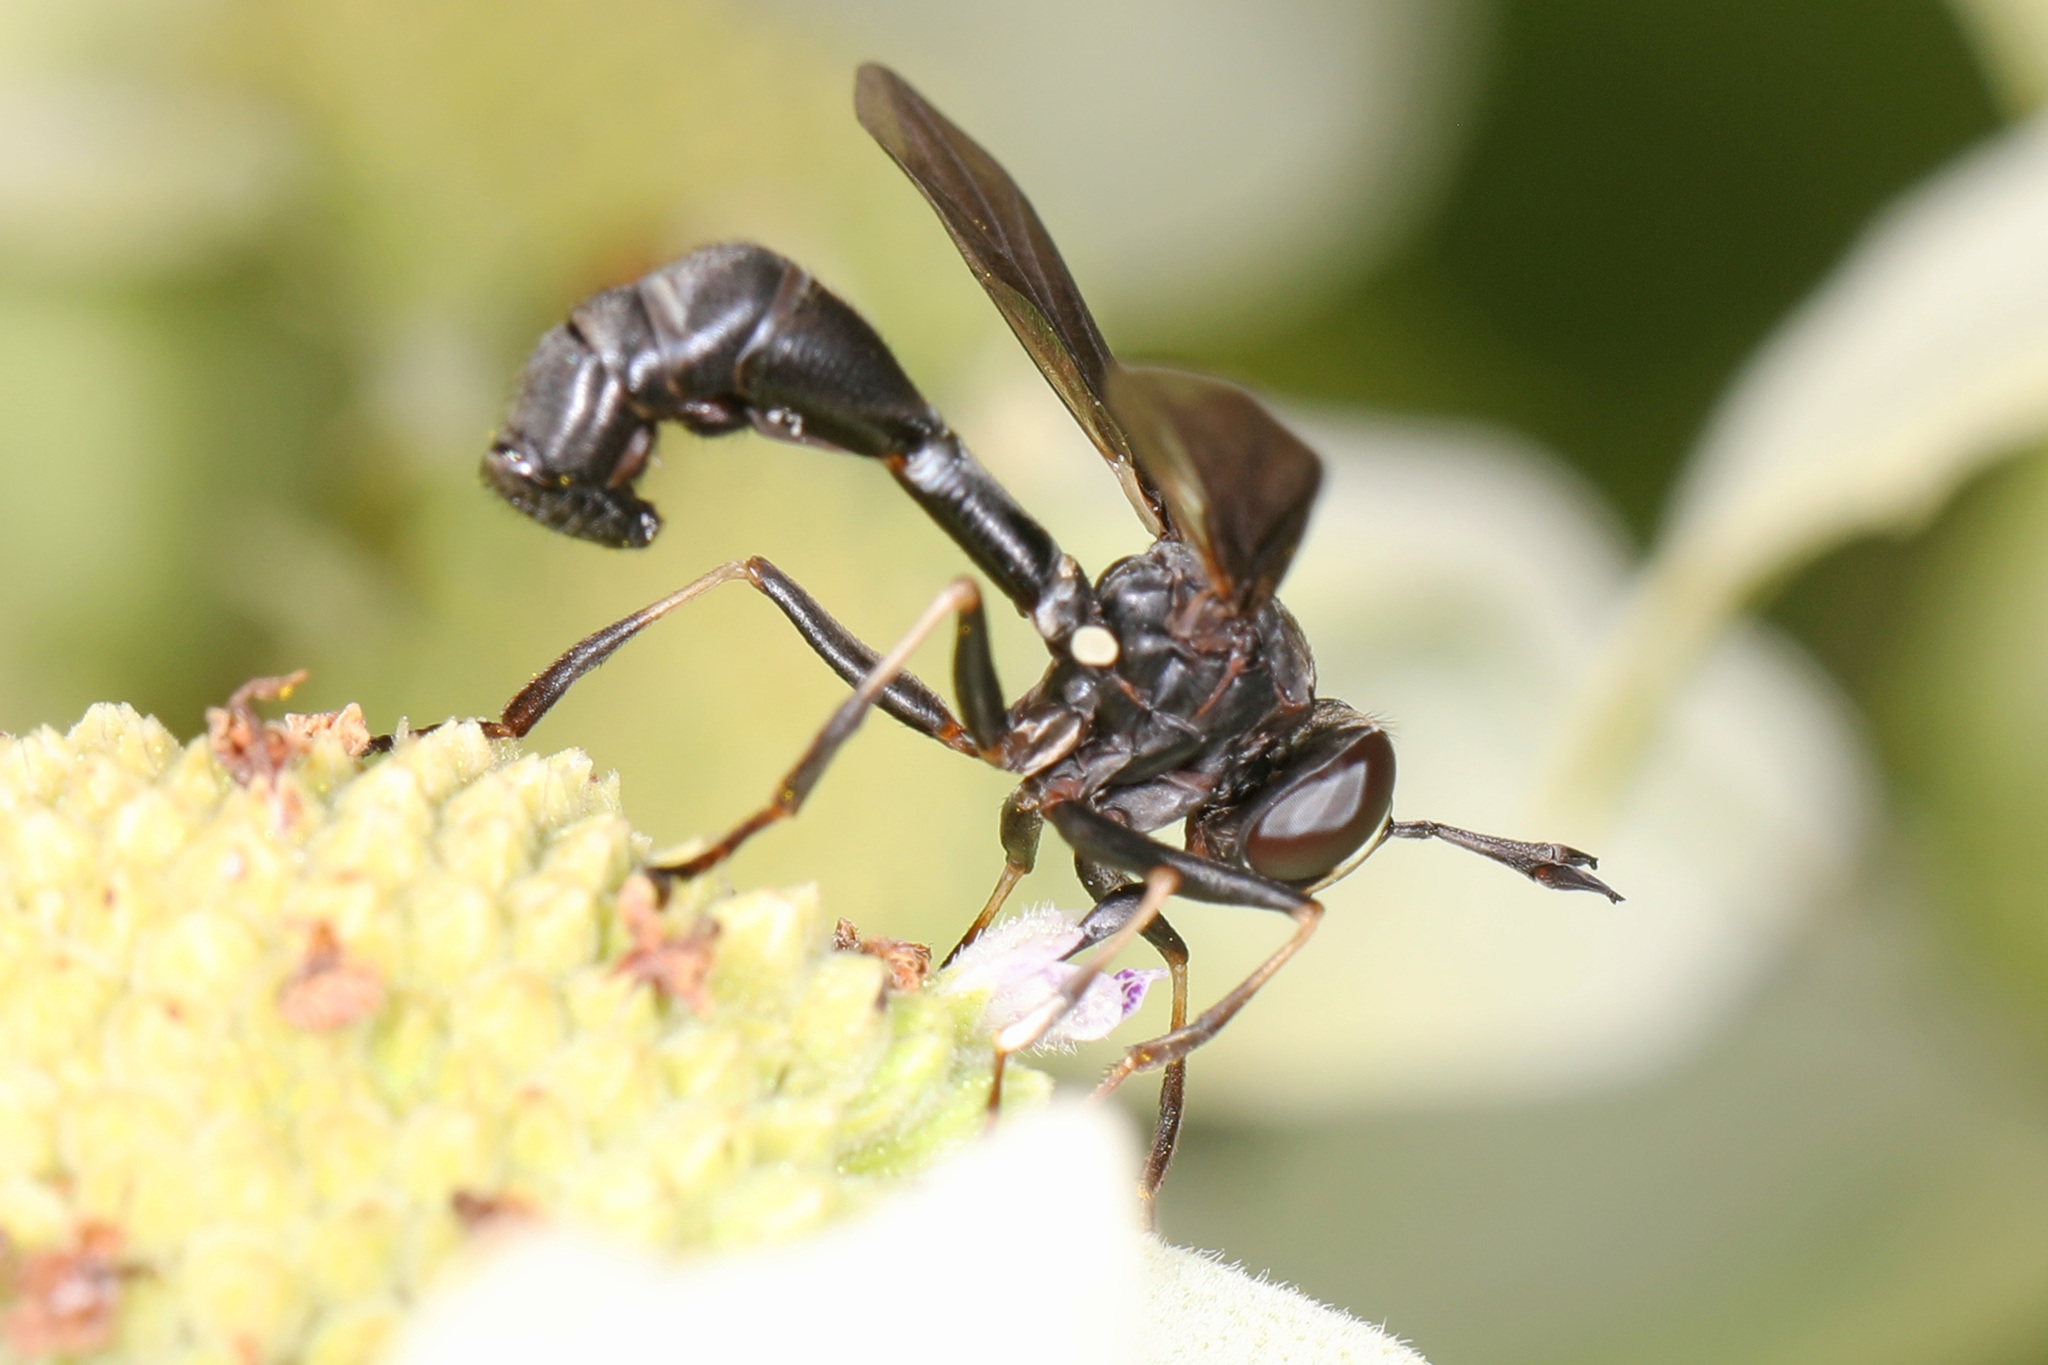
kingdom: Animalia
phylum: Arthropoda
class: Insecta
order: Diptera
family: Conopidae
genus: Physocephala
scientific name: Physocephala tibialis
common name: Common eastern physocephala
